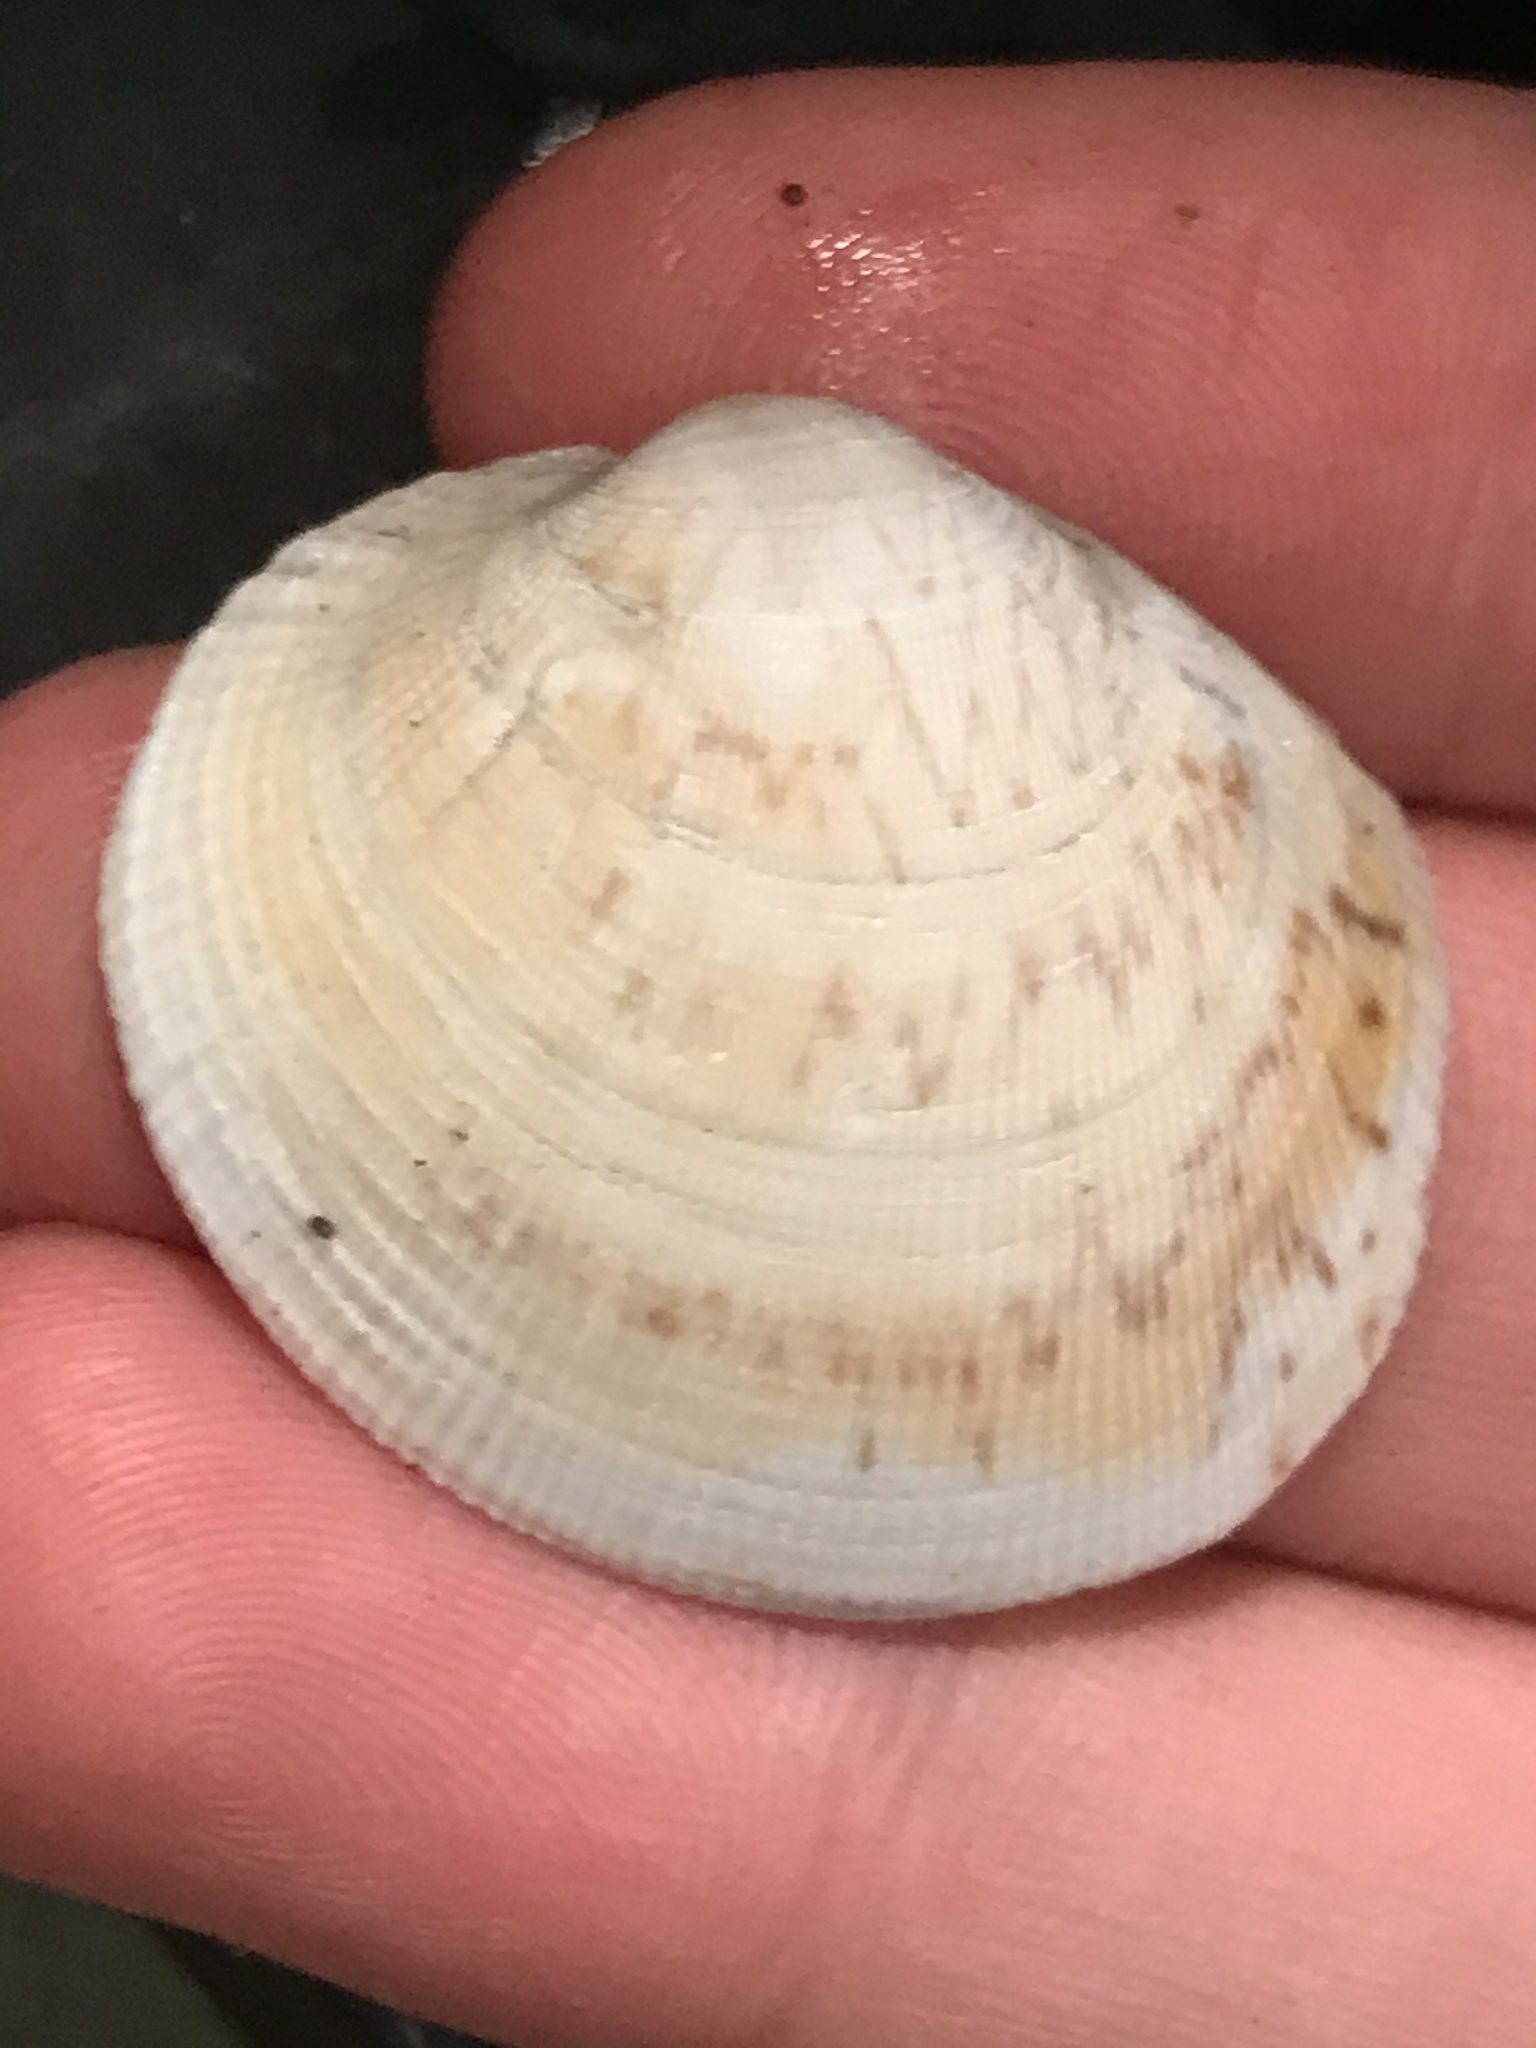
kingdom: Animalia
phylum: Mollusca
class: Bivalvia
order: Venerida
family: Veneridae
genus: Leukoma
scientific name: Leukoma staminea
